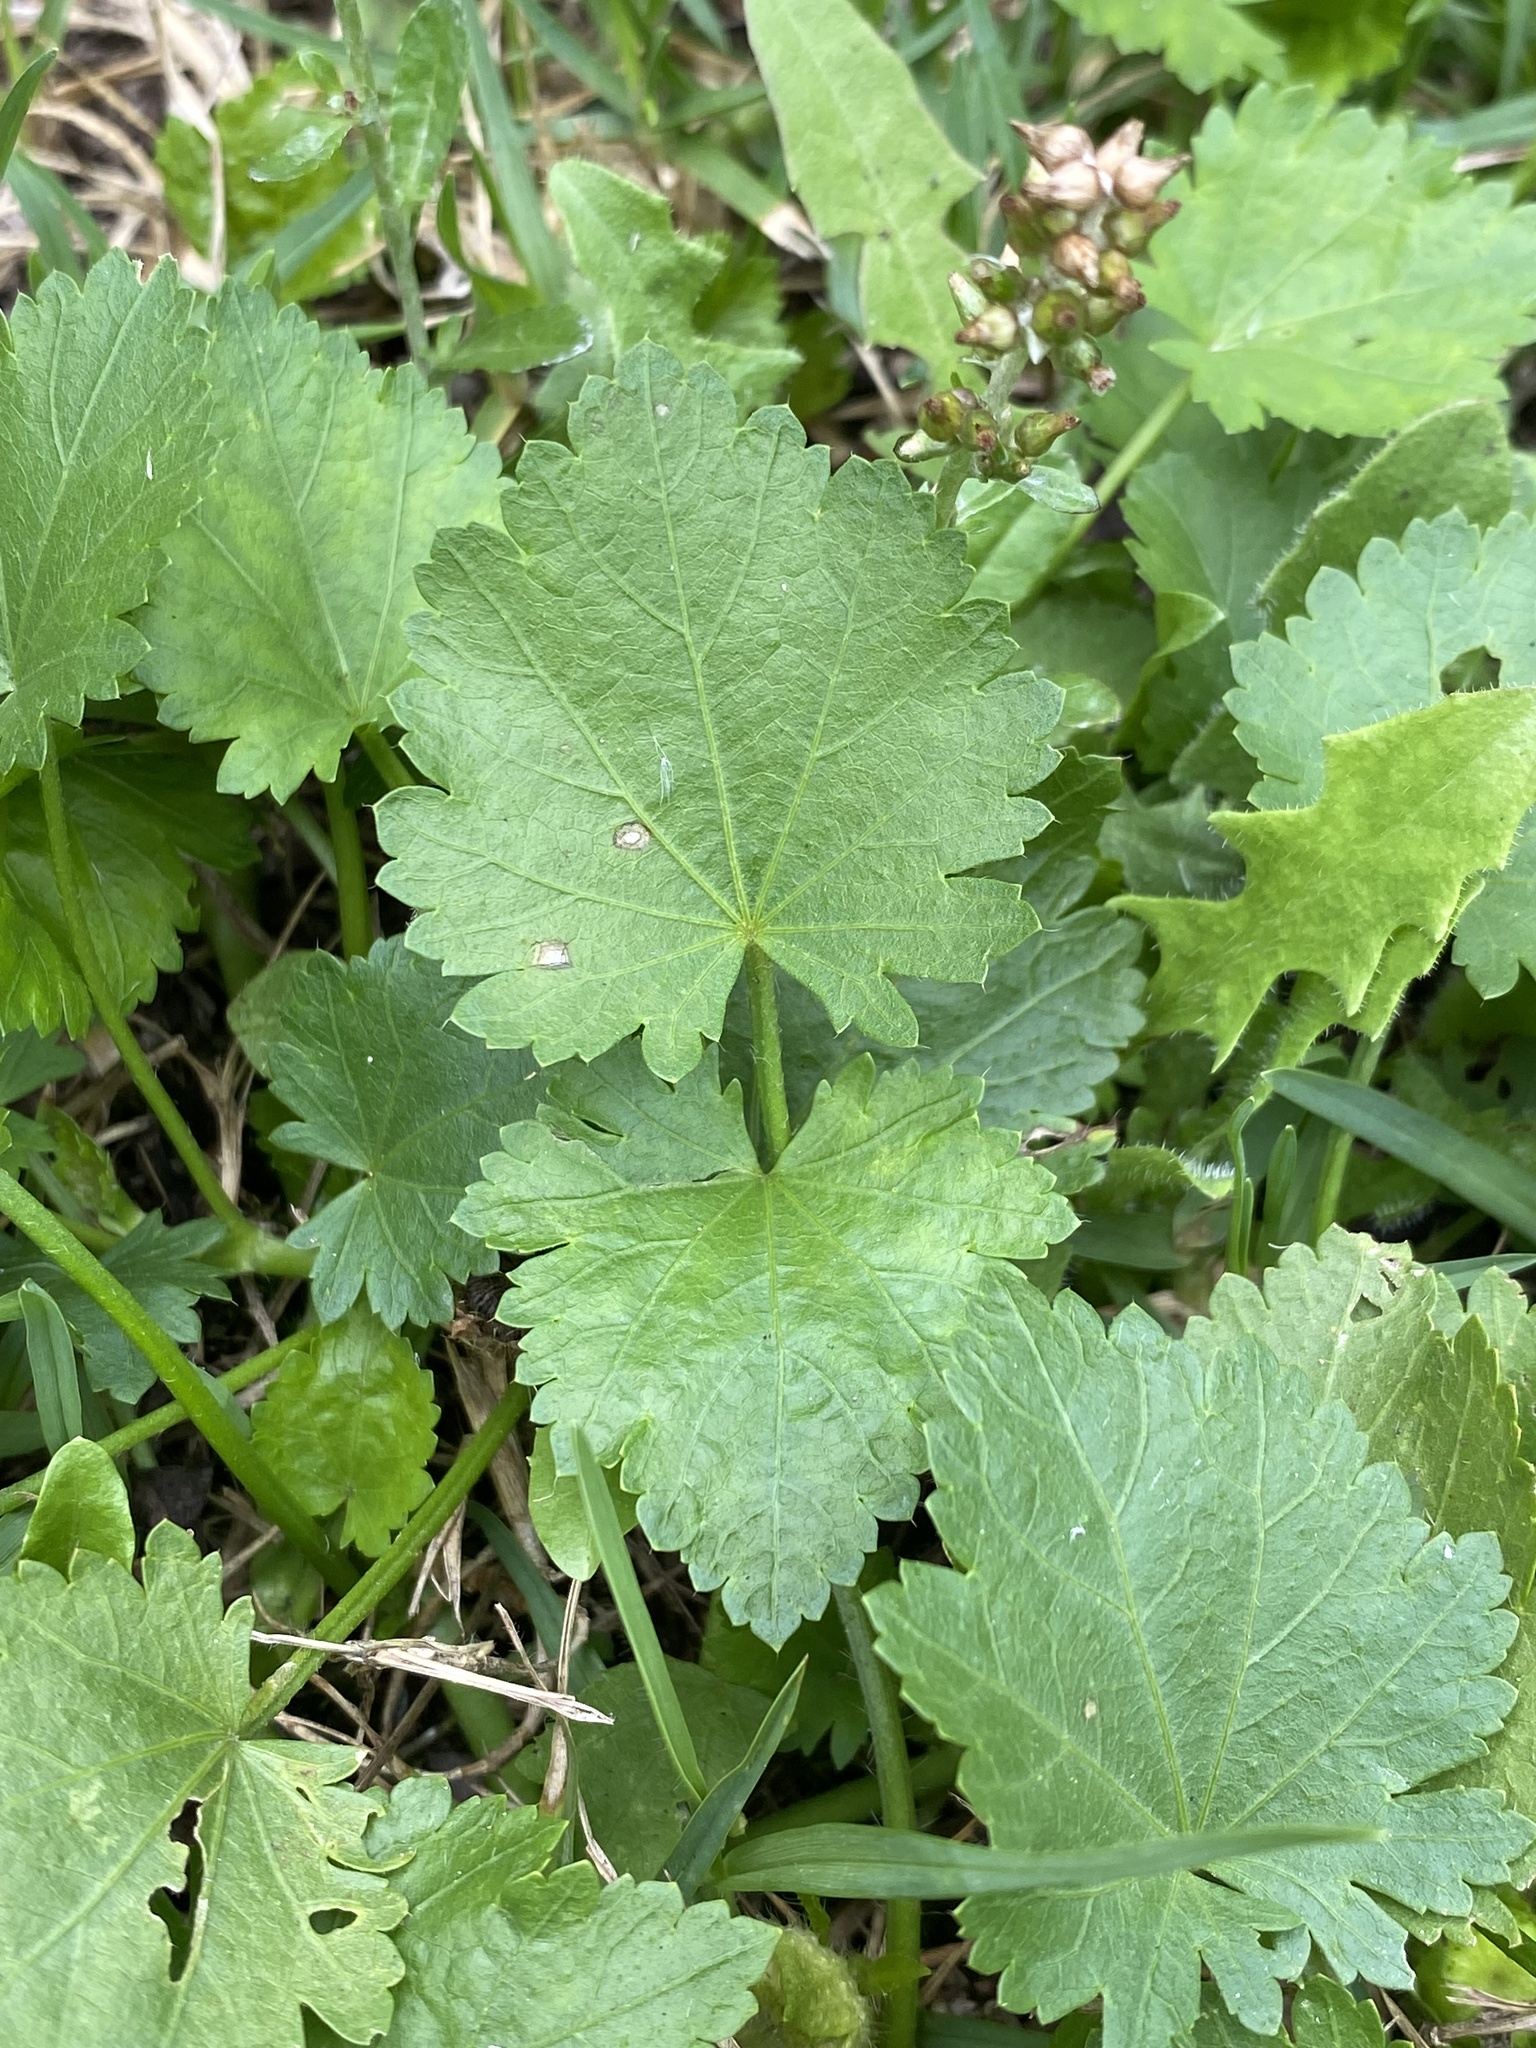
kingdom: Plantae
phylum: Tracheophyta
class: Magnoliopsida
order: Malvales
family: Malvaceae
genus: Modiola
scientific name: Modiola caroliniana
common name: Carolina bristlemallow
